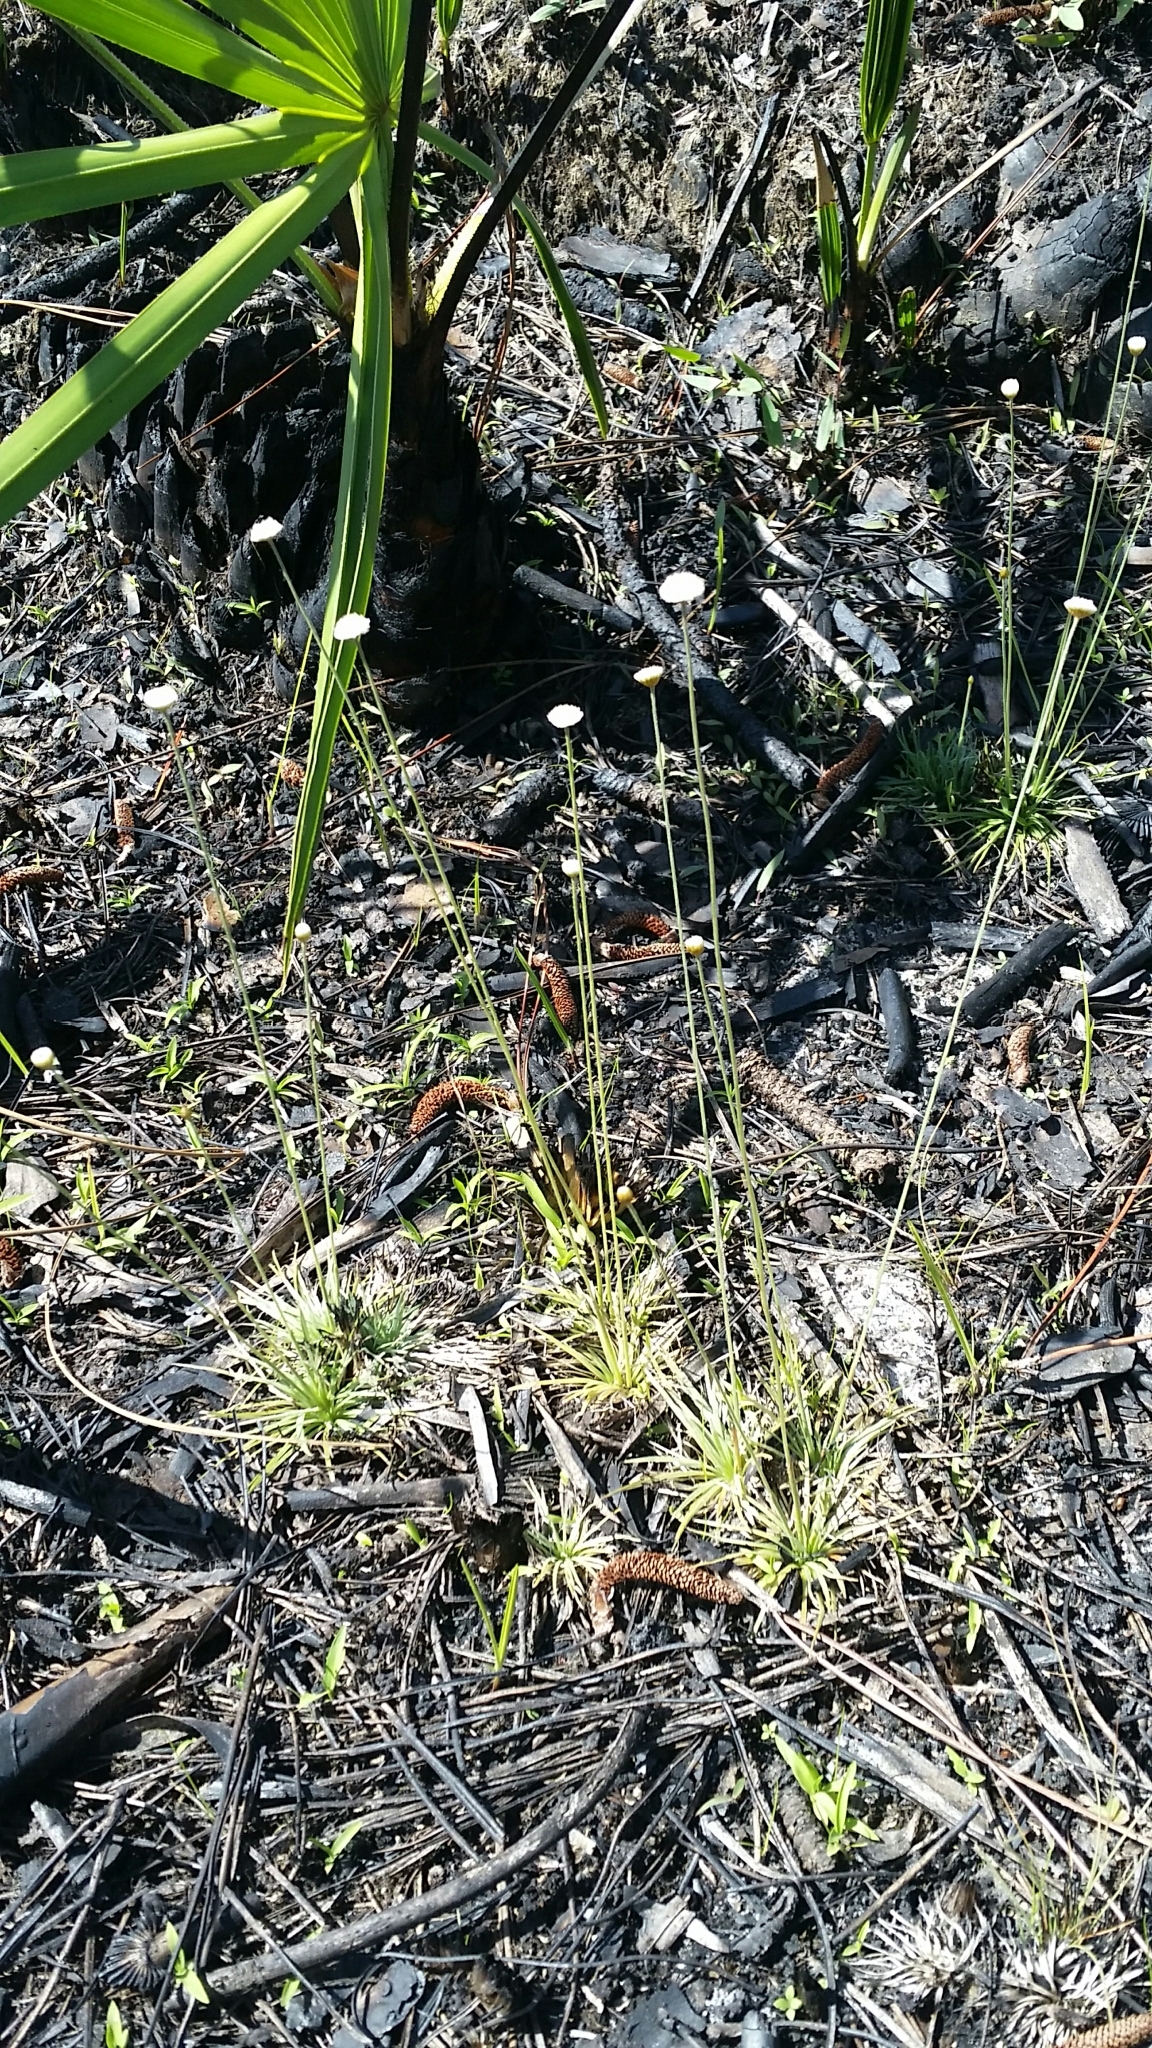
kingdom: Plantae
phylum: Tracheophyta
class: Liliopsida
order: Poales
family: Eriocaulaceae
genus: Syngonanthus
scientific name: Syngonanthus flavidulus
